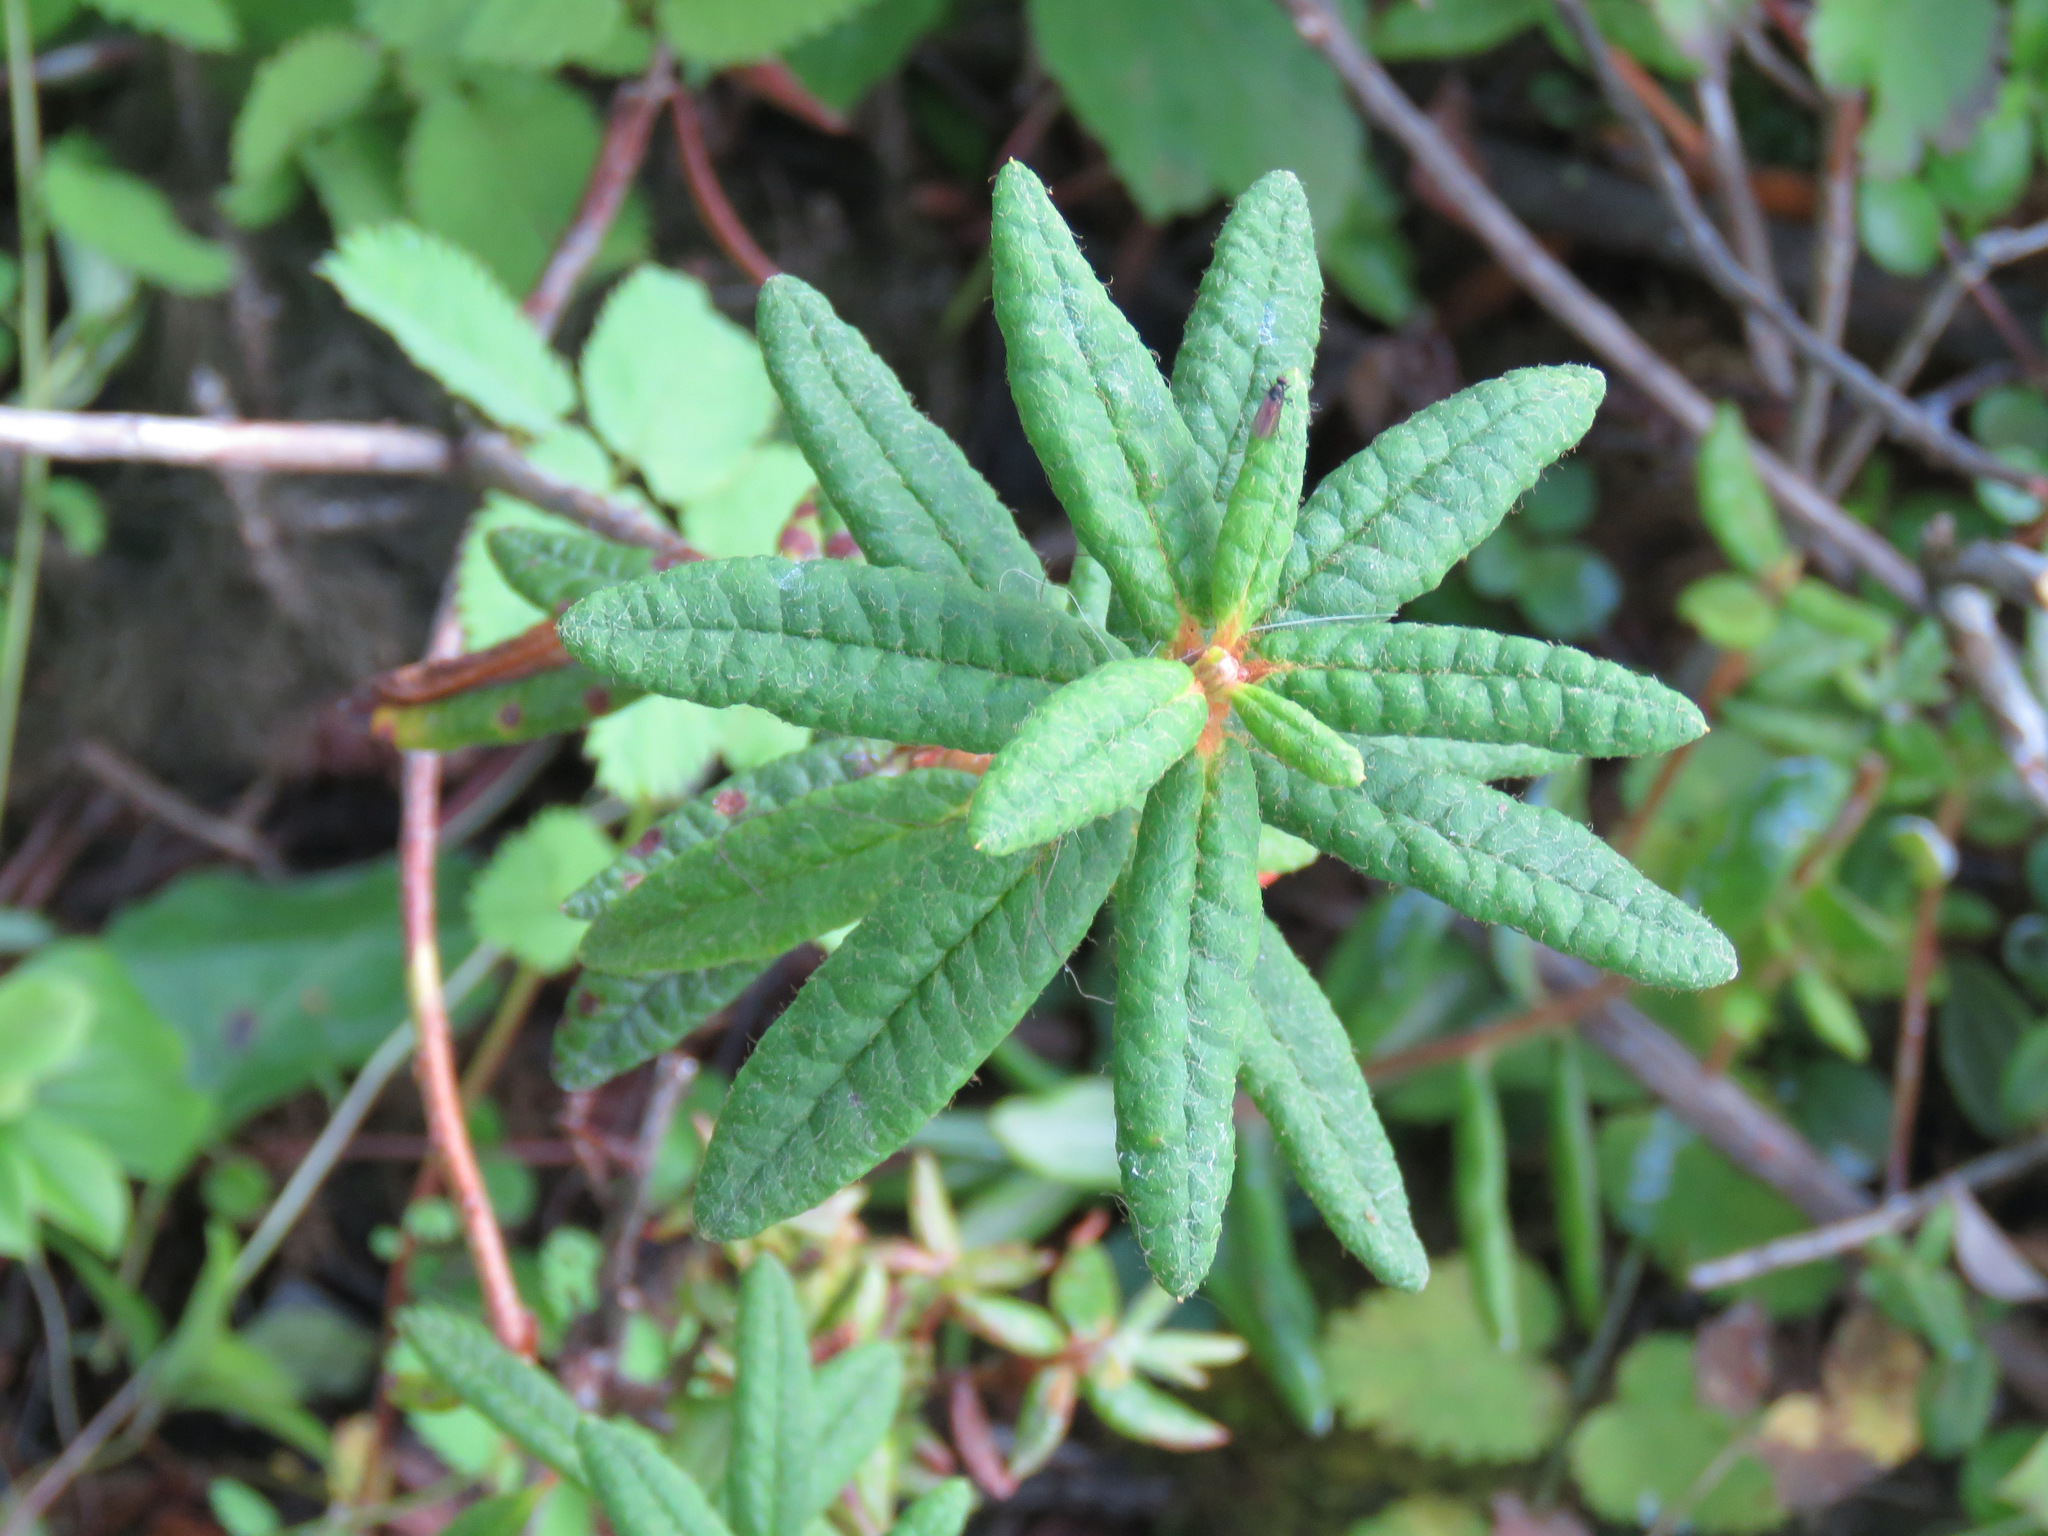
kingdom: Plantae
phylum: Tracheophyta
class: Magnoliopsida
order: Ericales
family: Ericaceae
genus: Rhododendron
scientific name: Rhododendron groenlandicum
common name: Bog labrador tea
